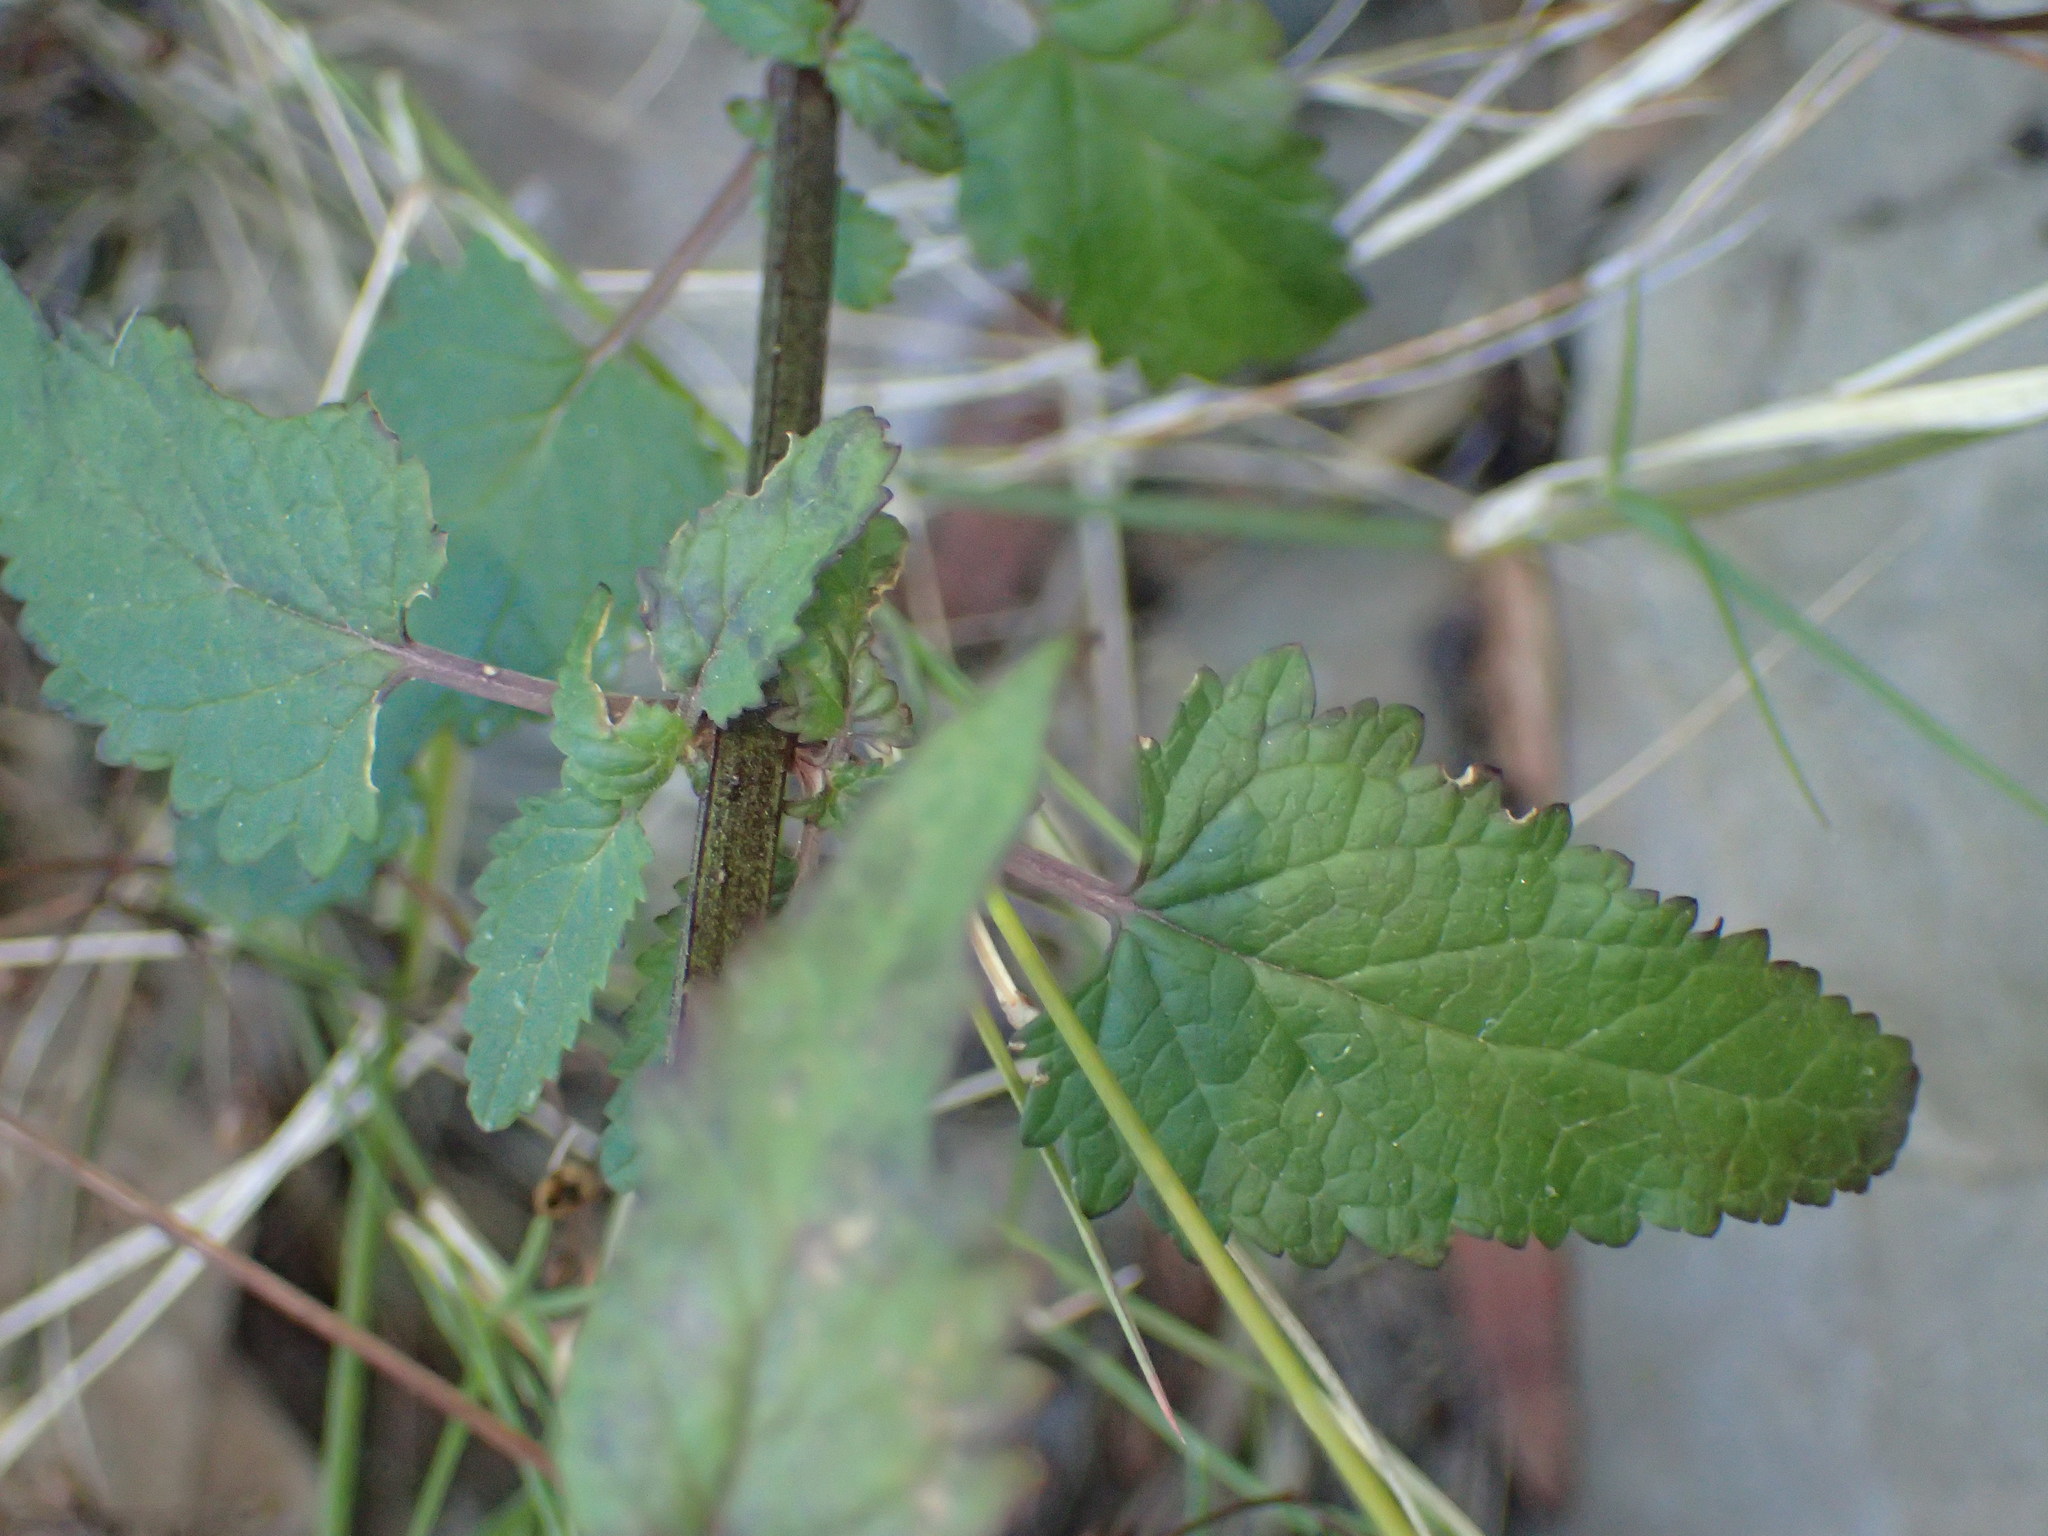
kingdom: Plantae
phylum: Tracheophyta
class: Magnoliopsida
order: Lamiales
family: Scrophulariaceae
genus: Scrophularia
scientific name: Scrophularia californica
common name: California figwort
